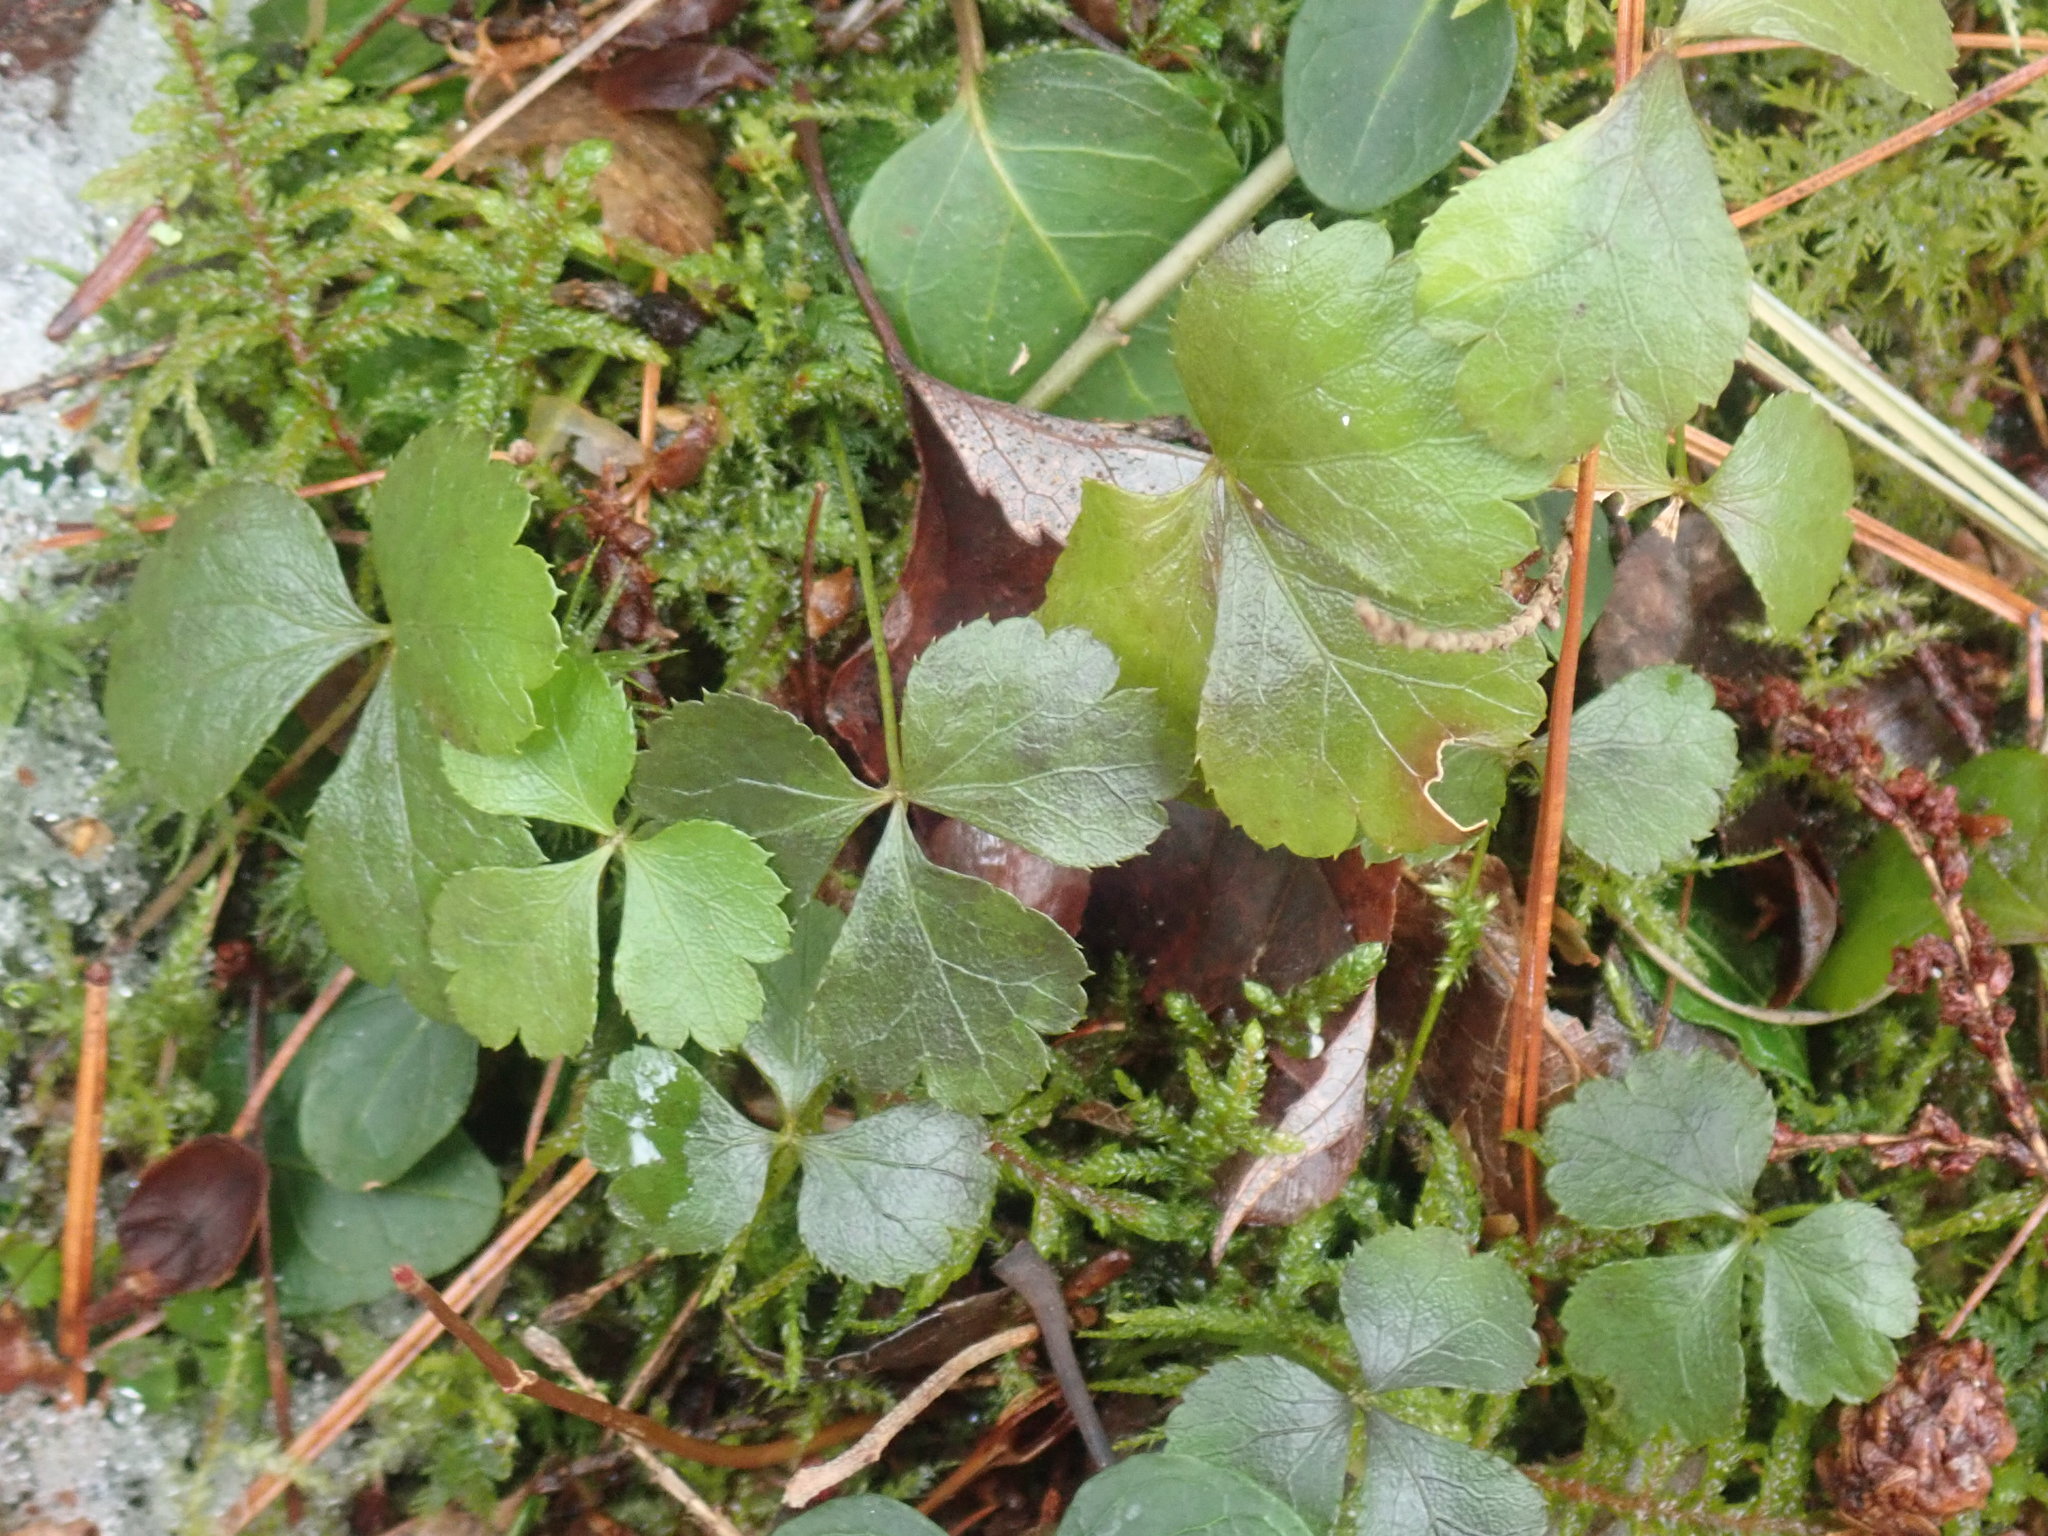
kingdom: Plantae
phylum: Tracheophyta
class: Magnoliopsida
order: Ranunculales
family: Ranunculaceae
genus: Coptis
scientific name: Coptis trifolia
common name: Canker-root
